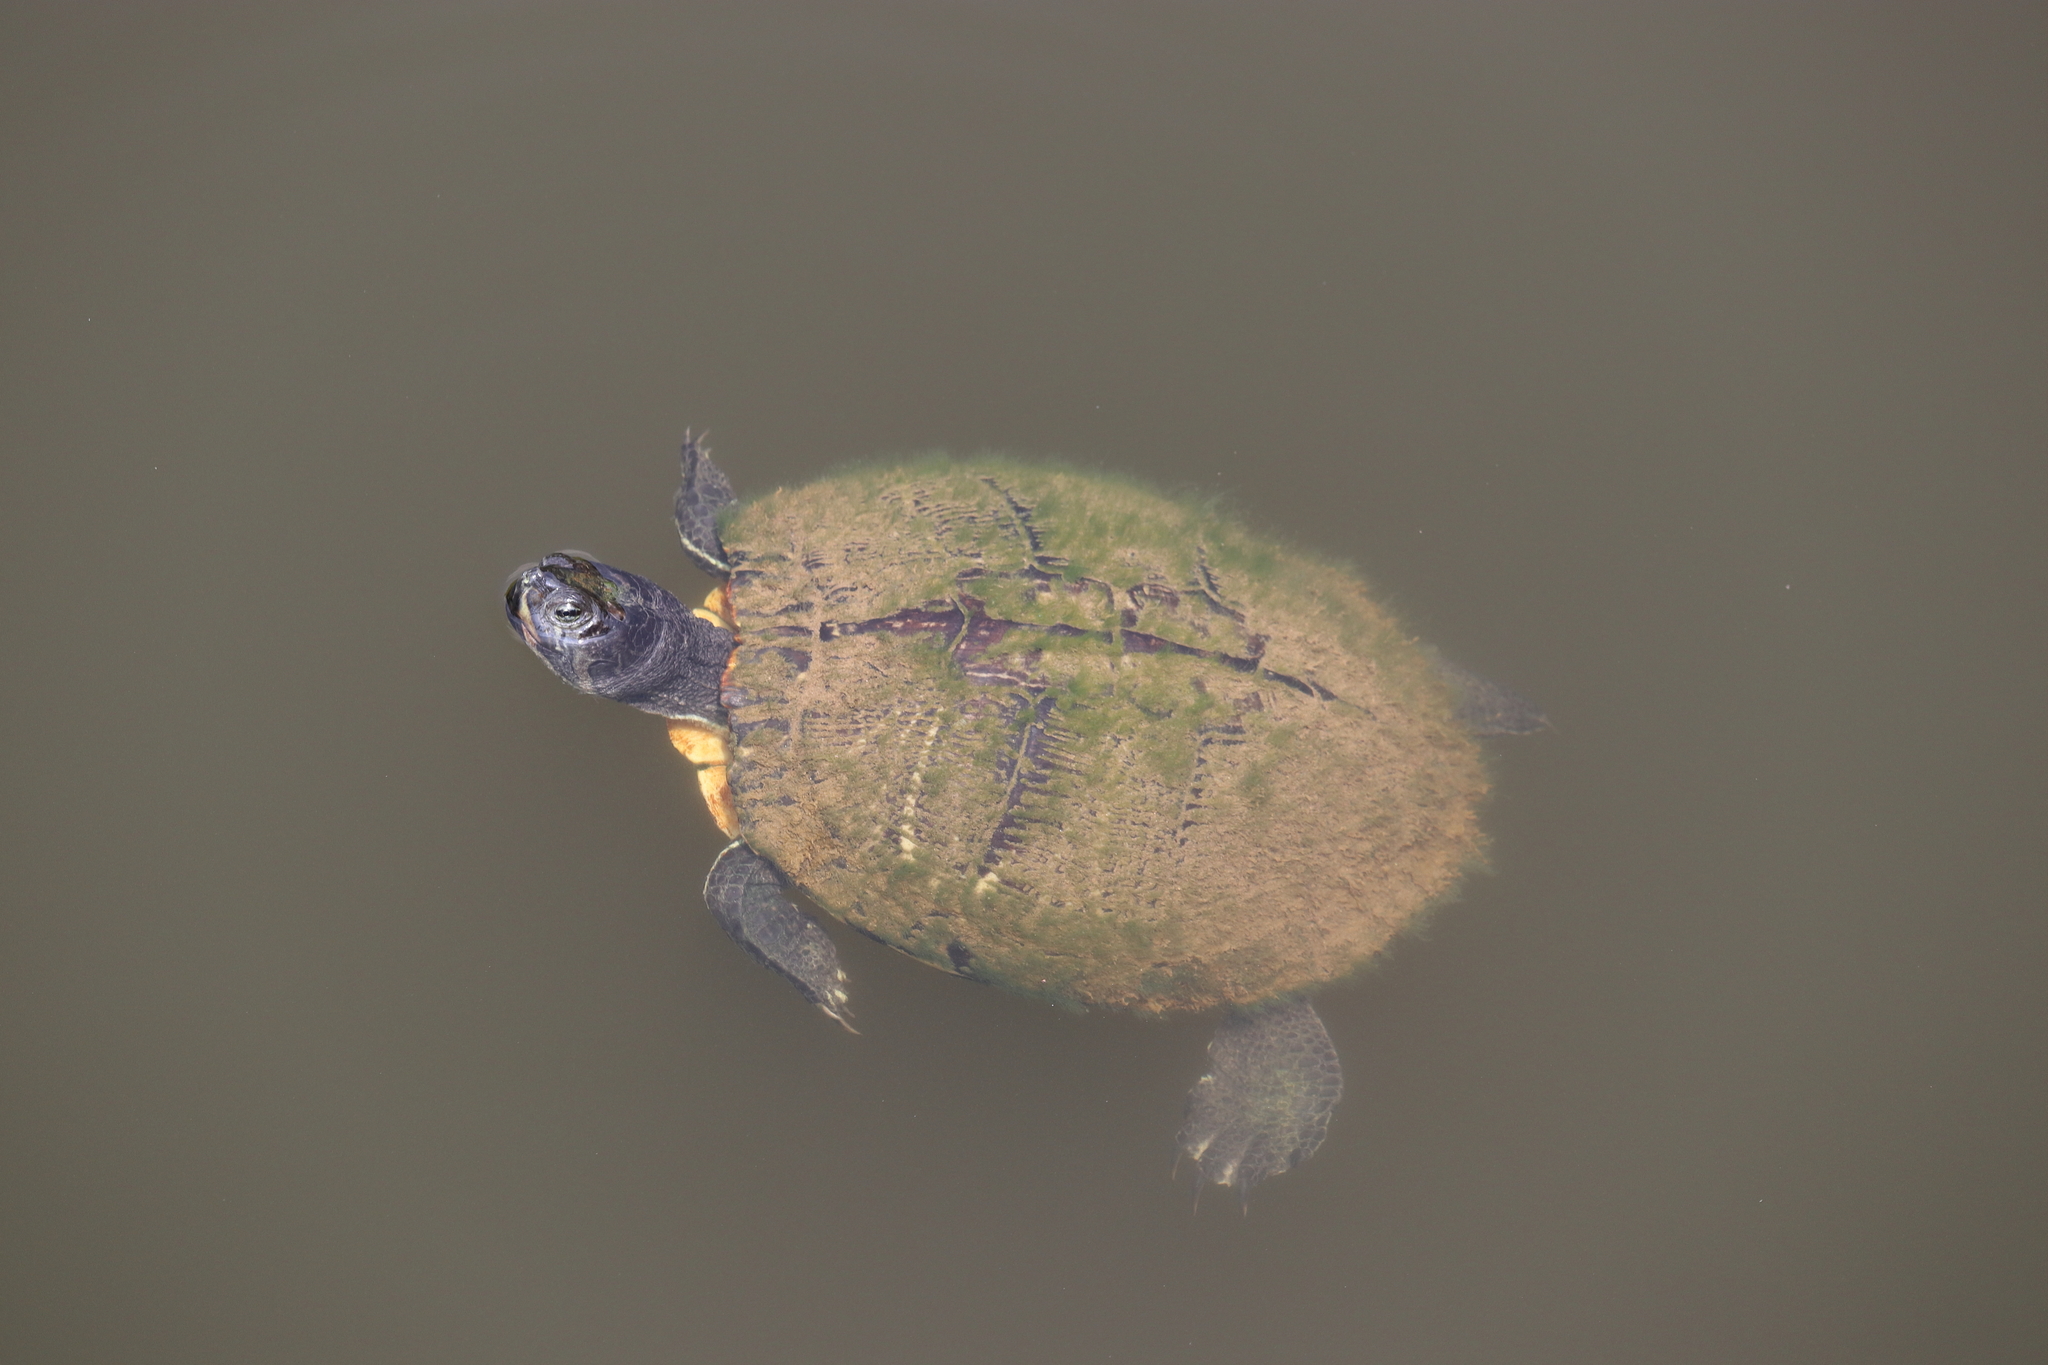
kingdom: Animalia
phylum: Chordata
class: Testudines
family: Emydidae
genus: Trachemys
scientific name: Trachemys scripta
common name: Slider
